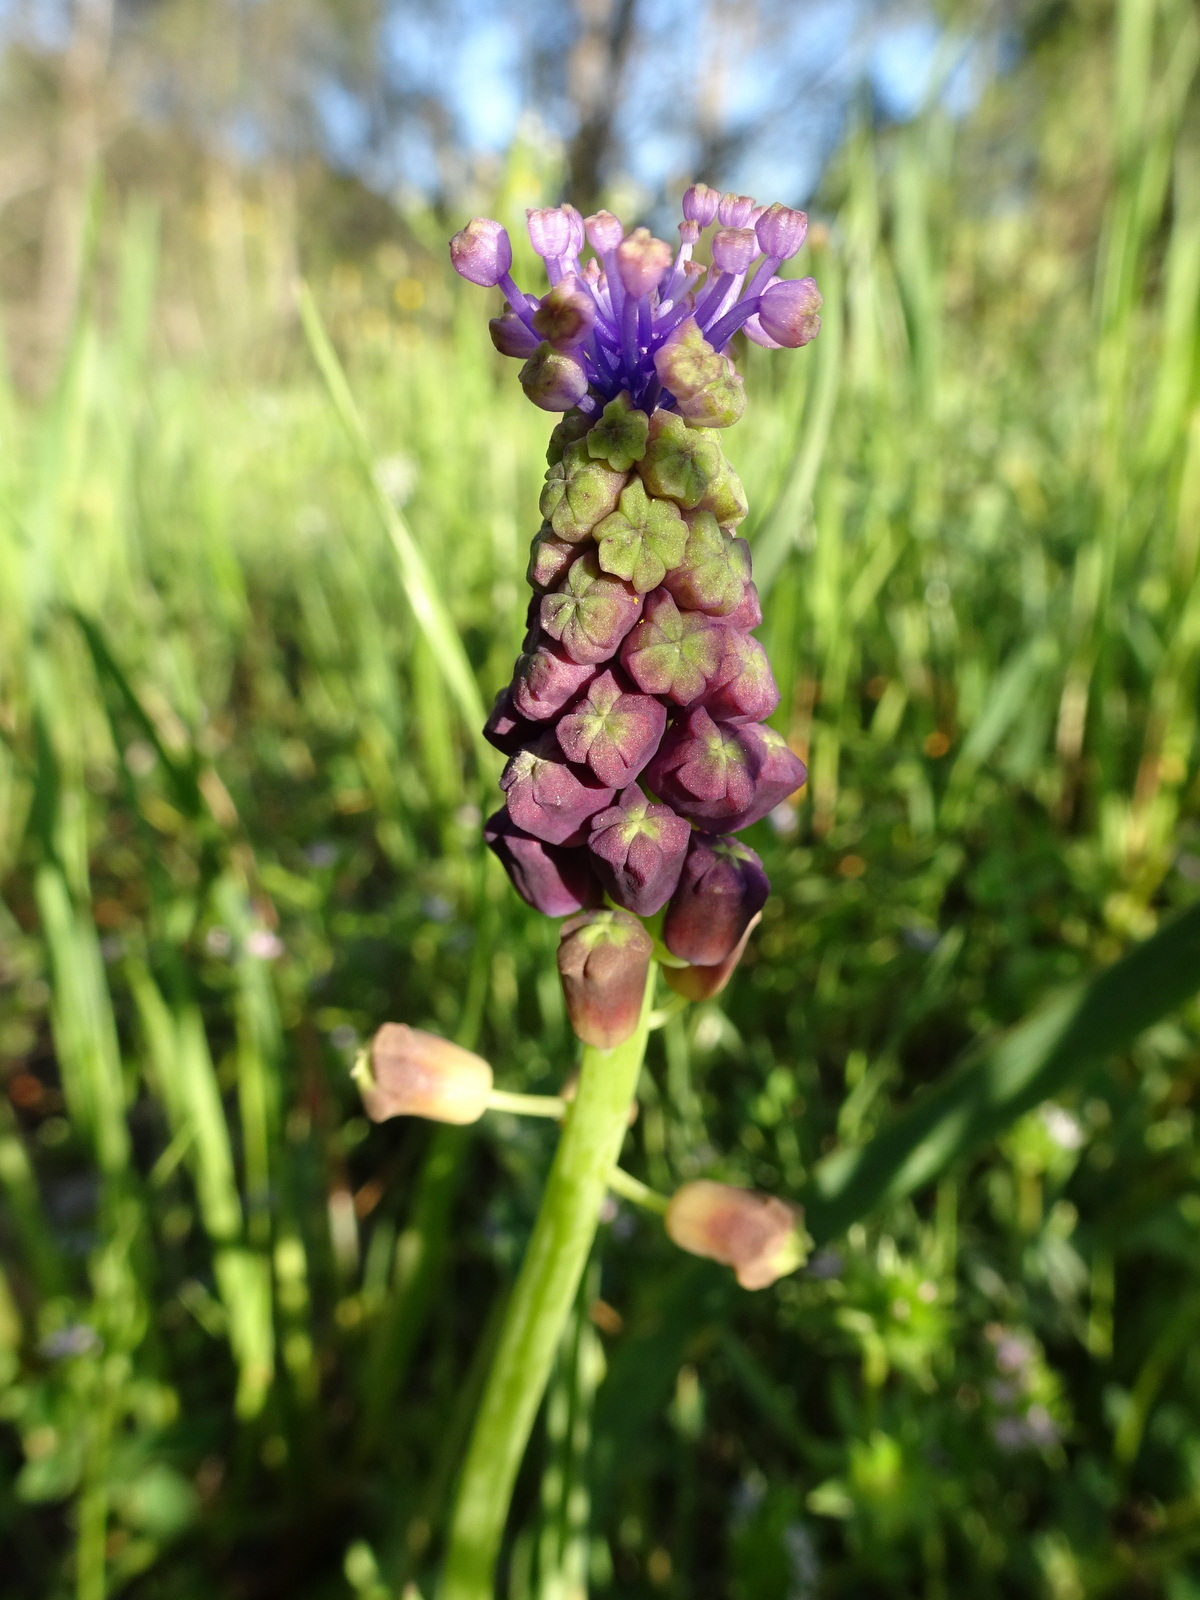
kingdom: Plantae
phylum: Tracheophyta
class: Liliopsida
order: Asparagales
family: Asparagaceae
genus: Muscari
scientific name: Muscari comosum
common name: Tassel hyacinth
